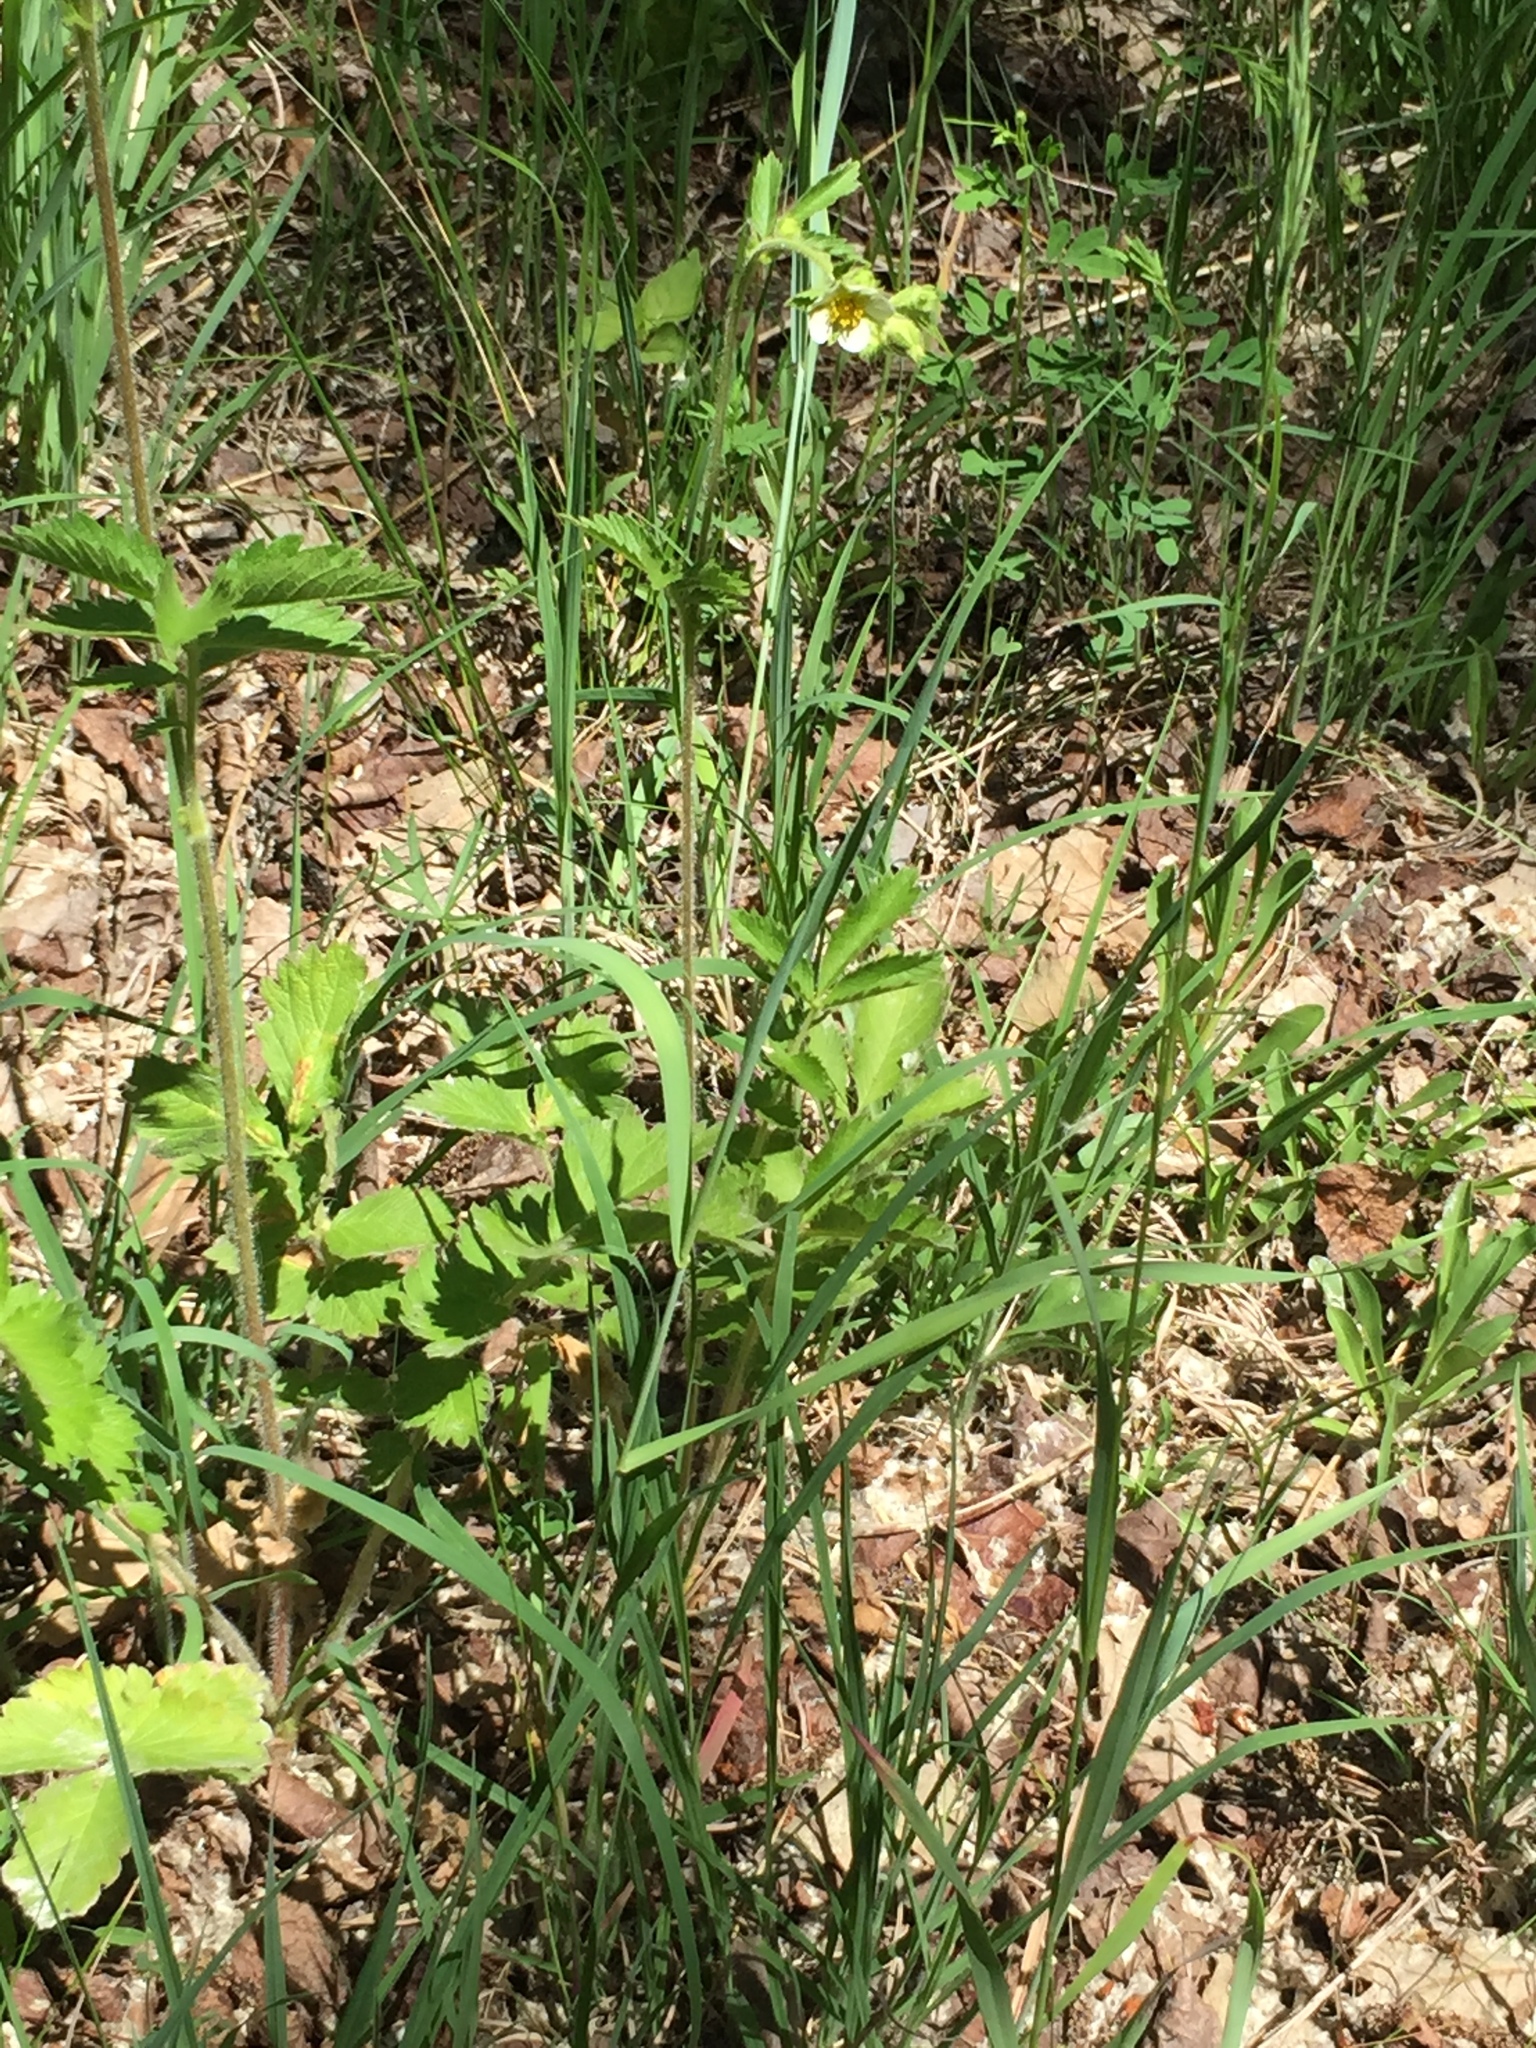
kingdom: Plantae
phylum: Tracheophyta
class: Magnoliopsida
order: Rosales
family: Rosaceae
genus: Drymocallis
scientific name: Drymocallis arguta
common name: Tall cinquefoil
